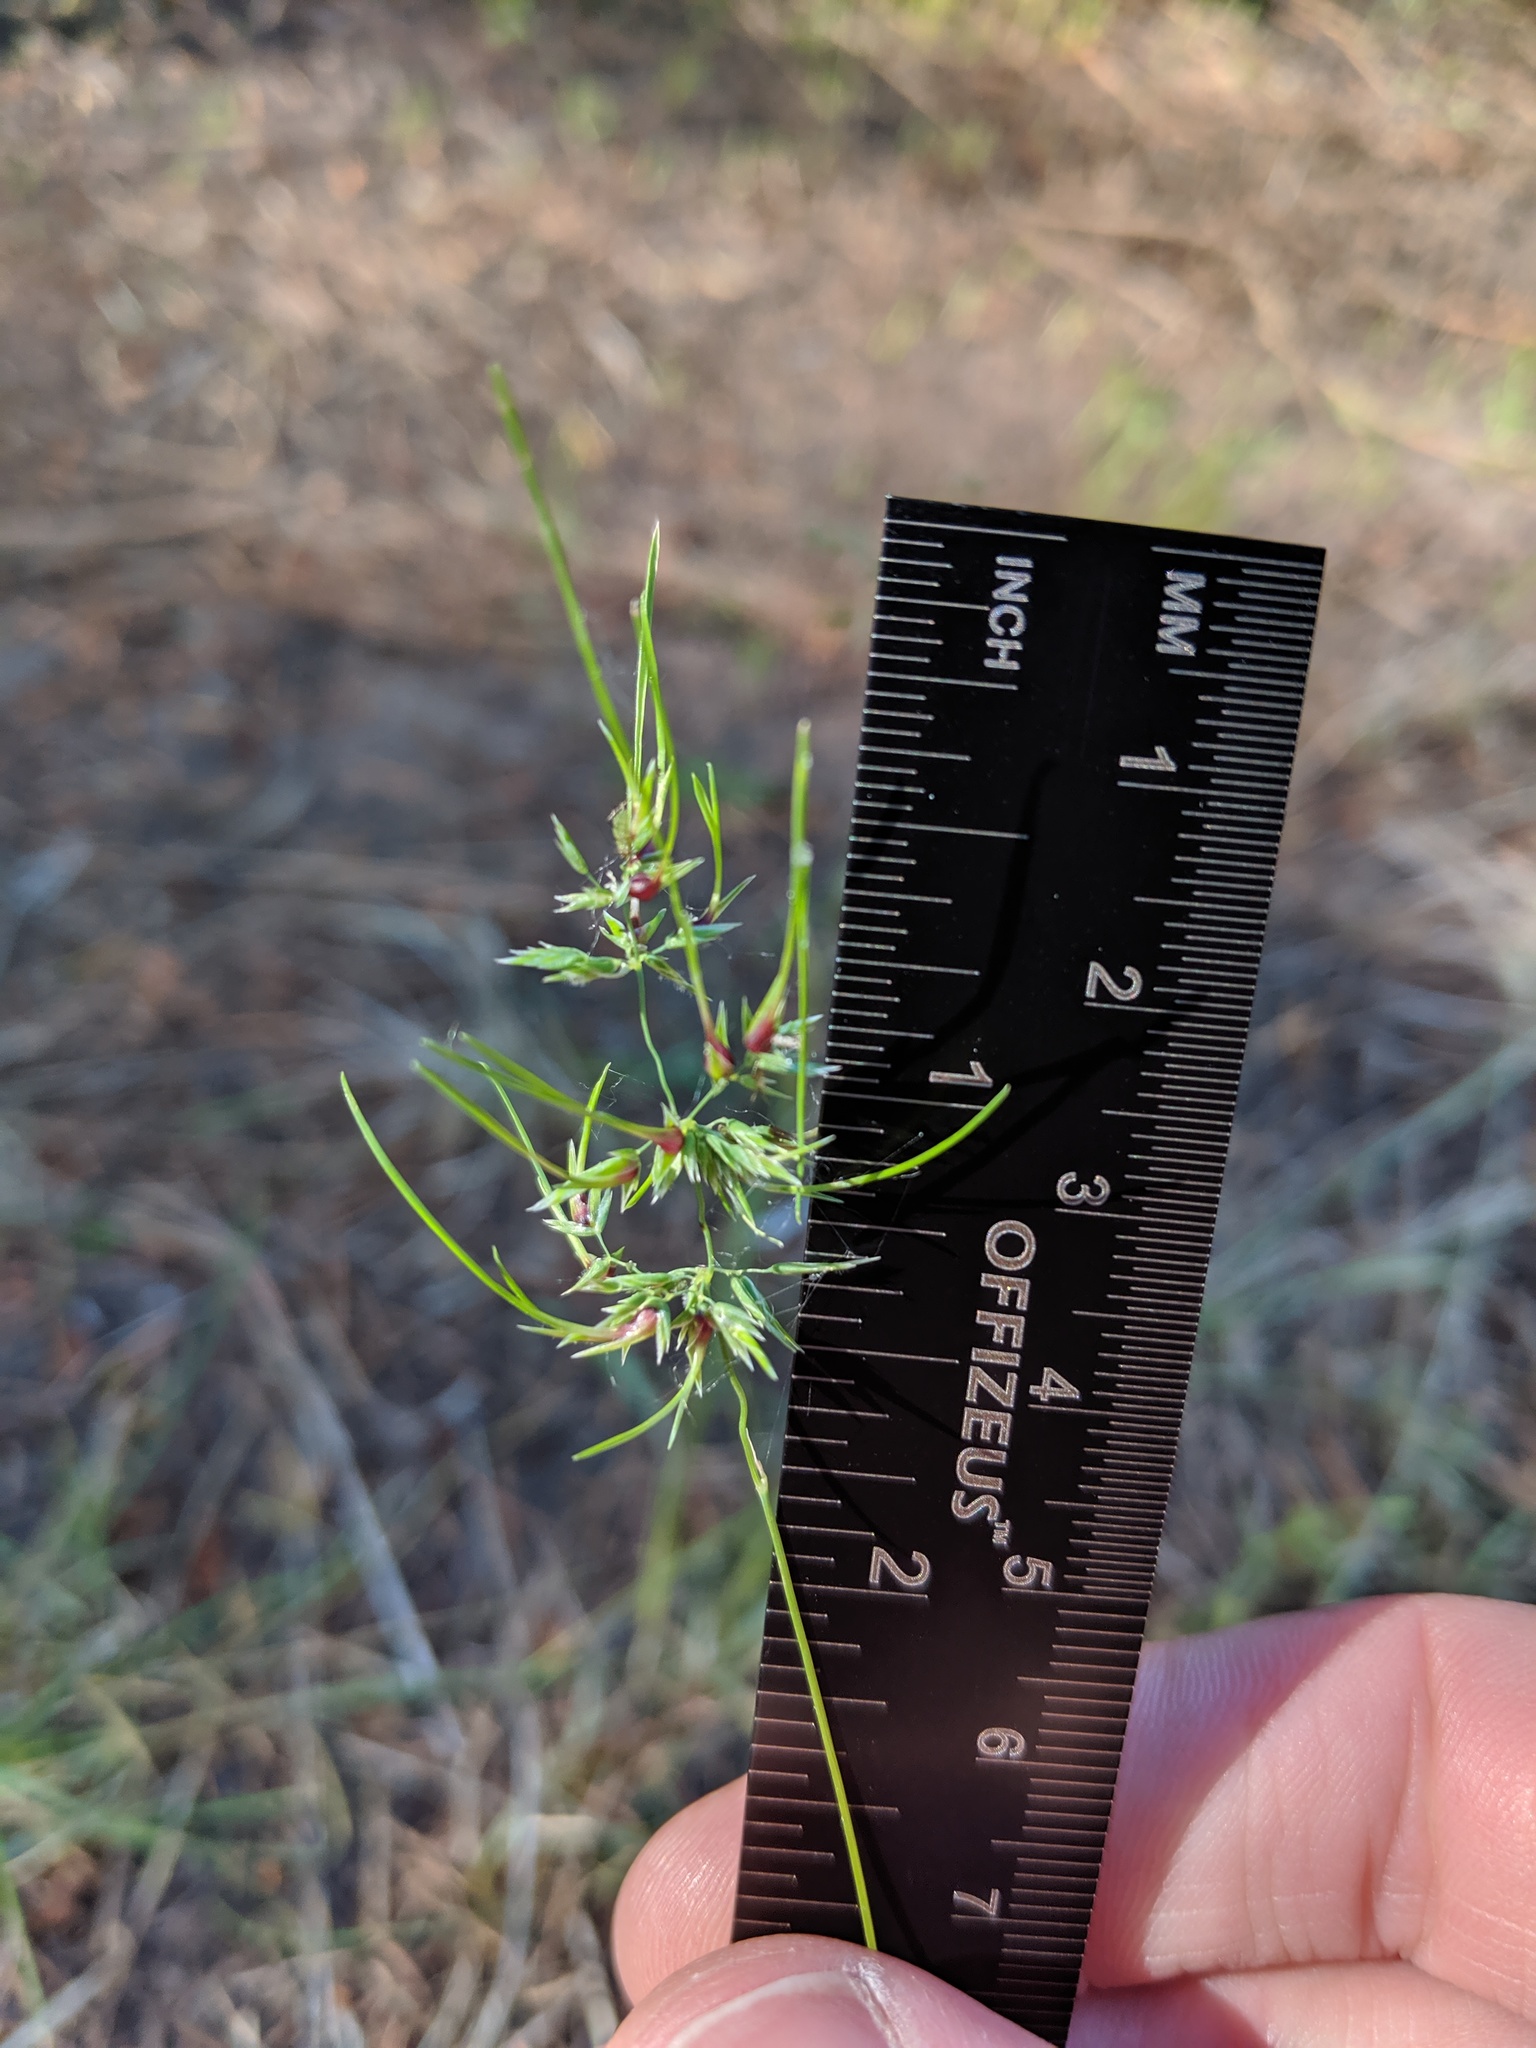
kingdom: Plantae
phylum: Tracheophyta
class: Liliopsida
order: Poales
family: Poaceae
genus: Poa
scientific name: Poa bulbosa
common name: Bulbous bluegrass
